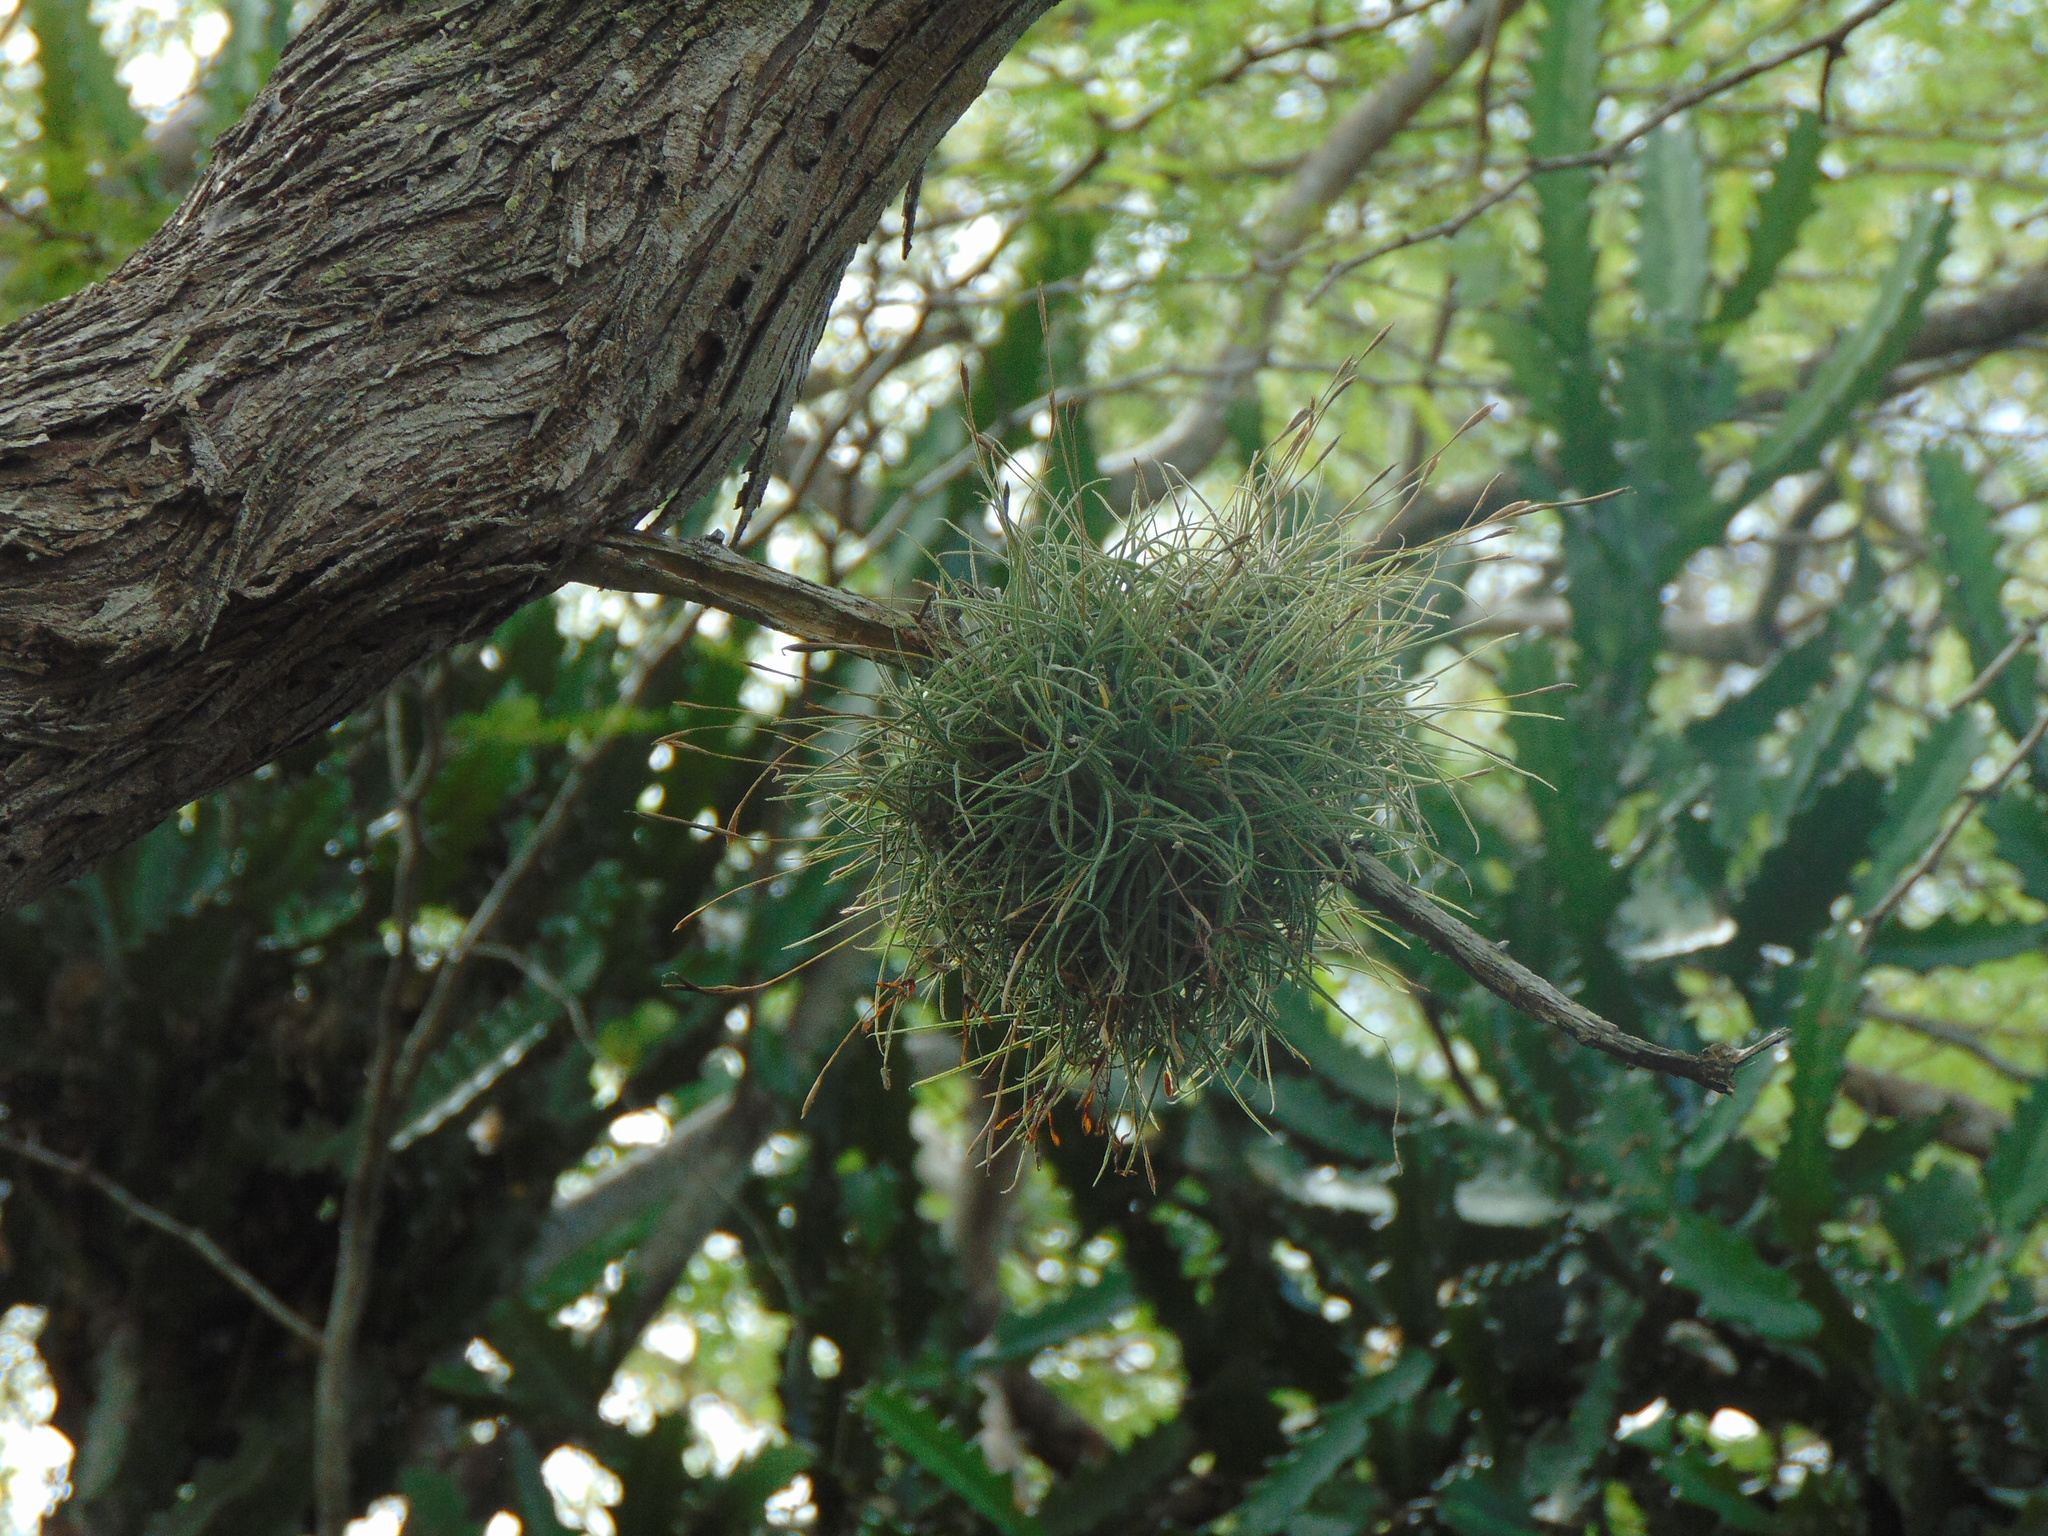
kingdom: Plantae
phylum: Tracheophyta
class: Liliopsida
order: Poales
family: Bromeliaceae
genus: Tillandsia
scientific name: Tillandsia recurvata
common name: Small ballmoss
